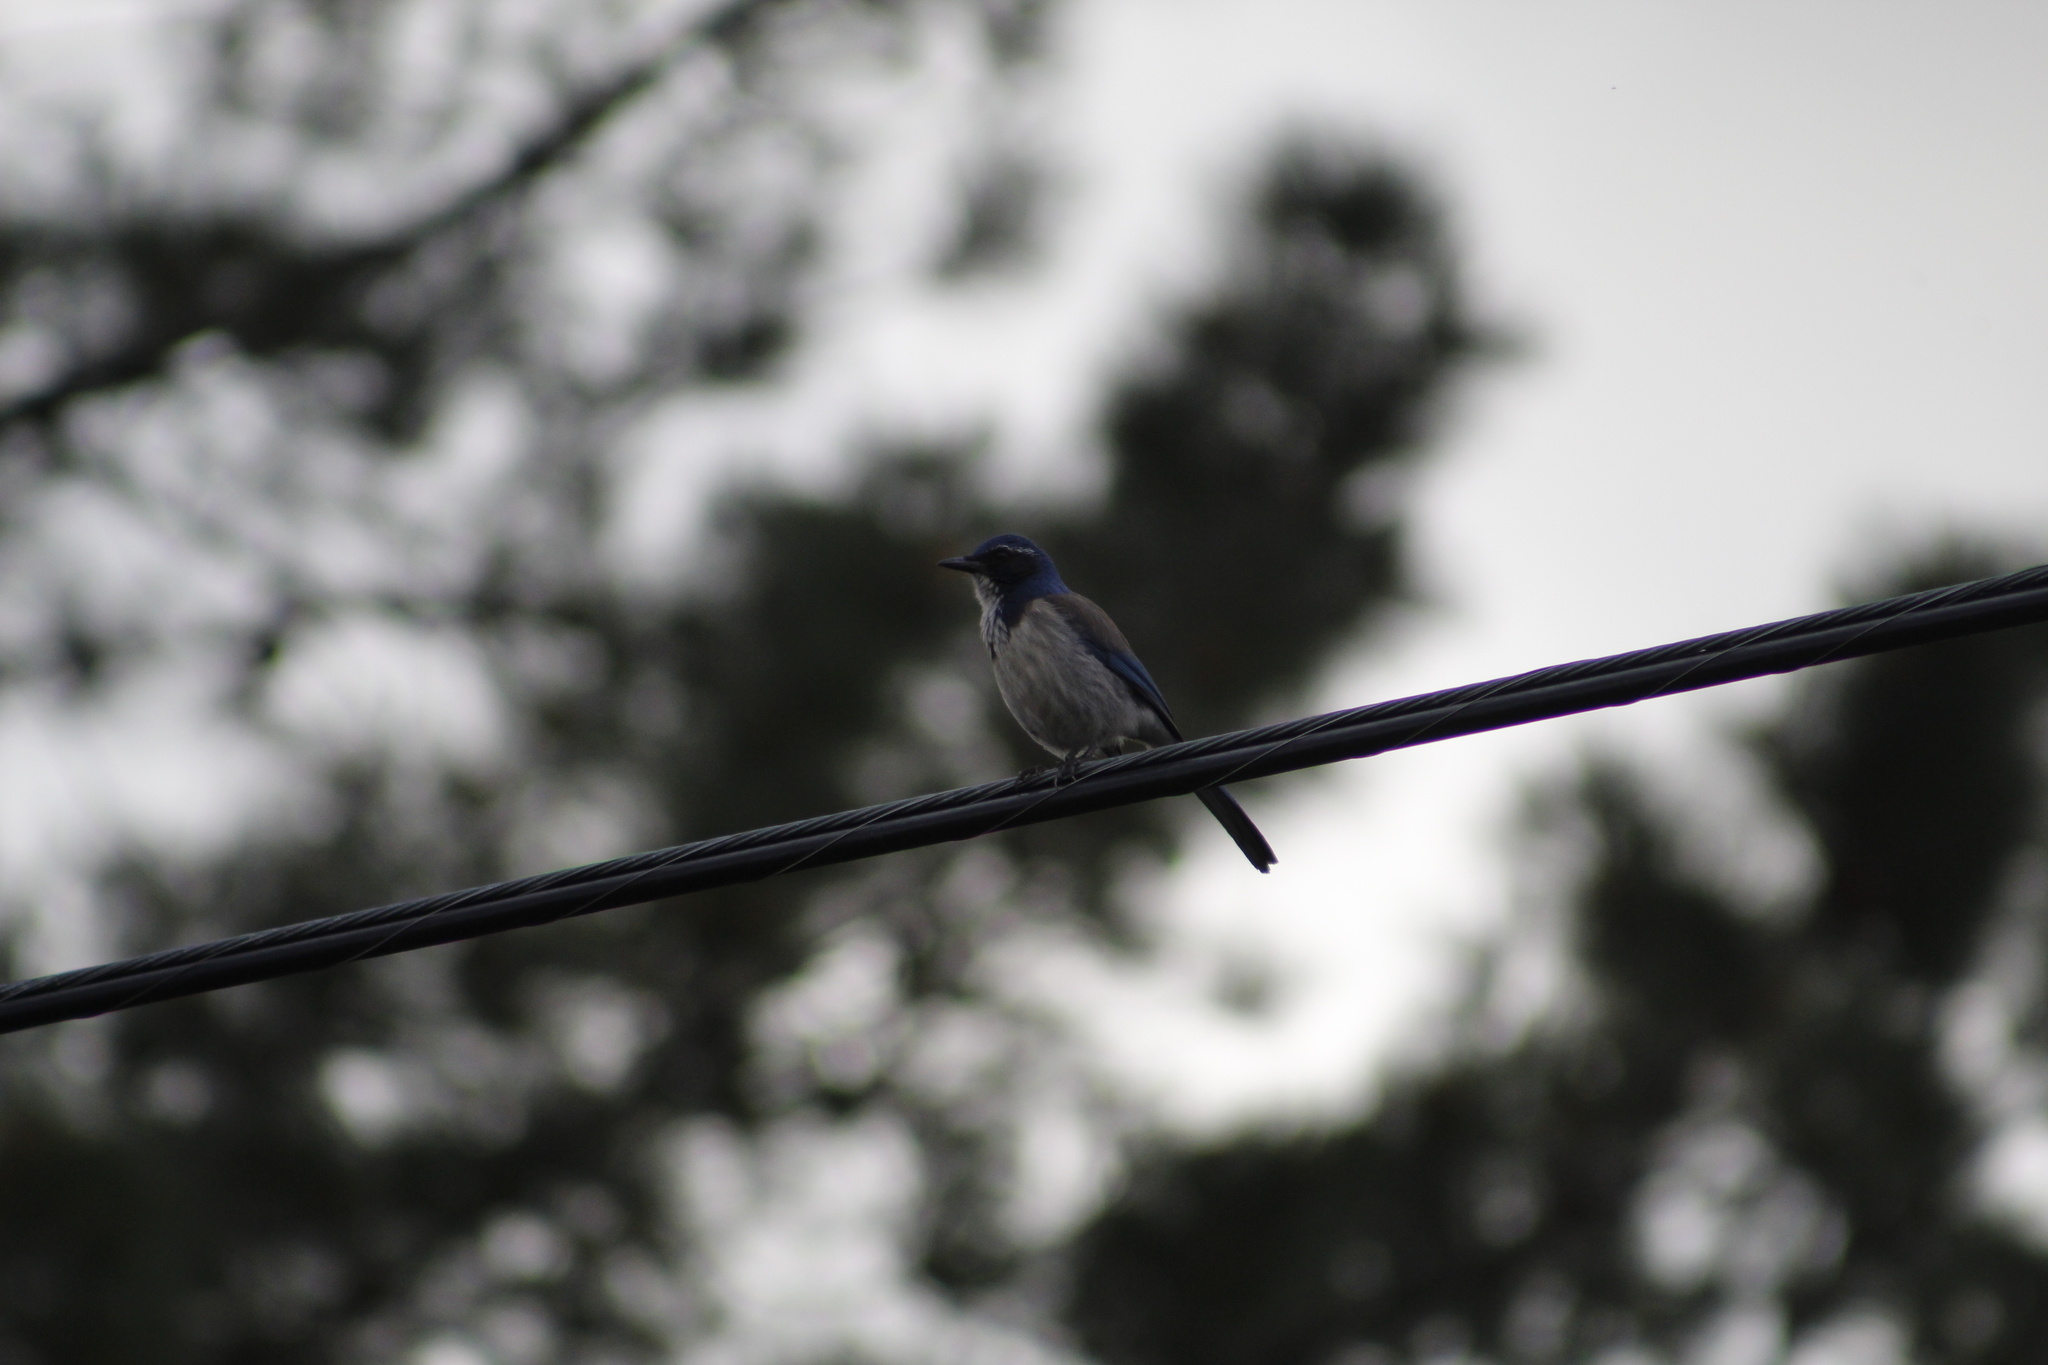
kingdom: Animalia
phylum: Chordata
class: Aves
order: Passeriformes
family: Corvidae
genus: Aphelocoma
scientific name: Aphelocoma californica
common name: California scrub-jay
